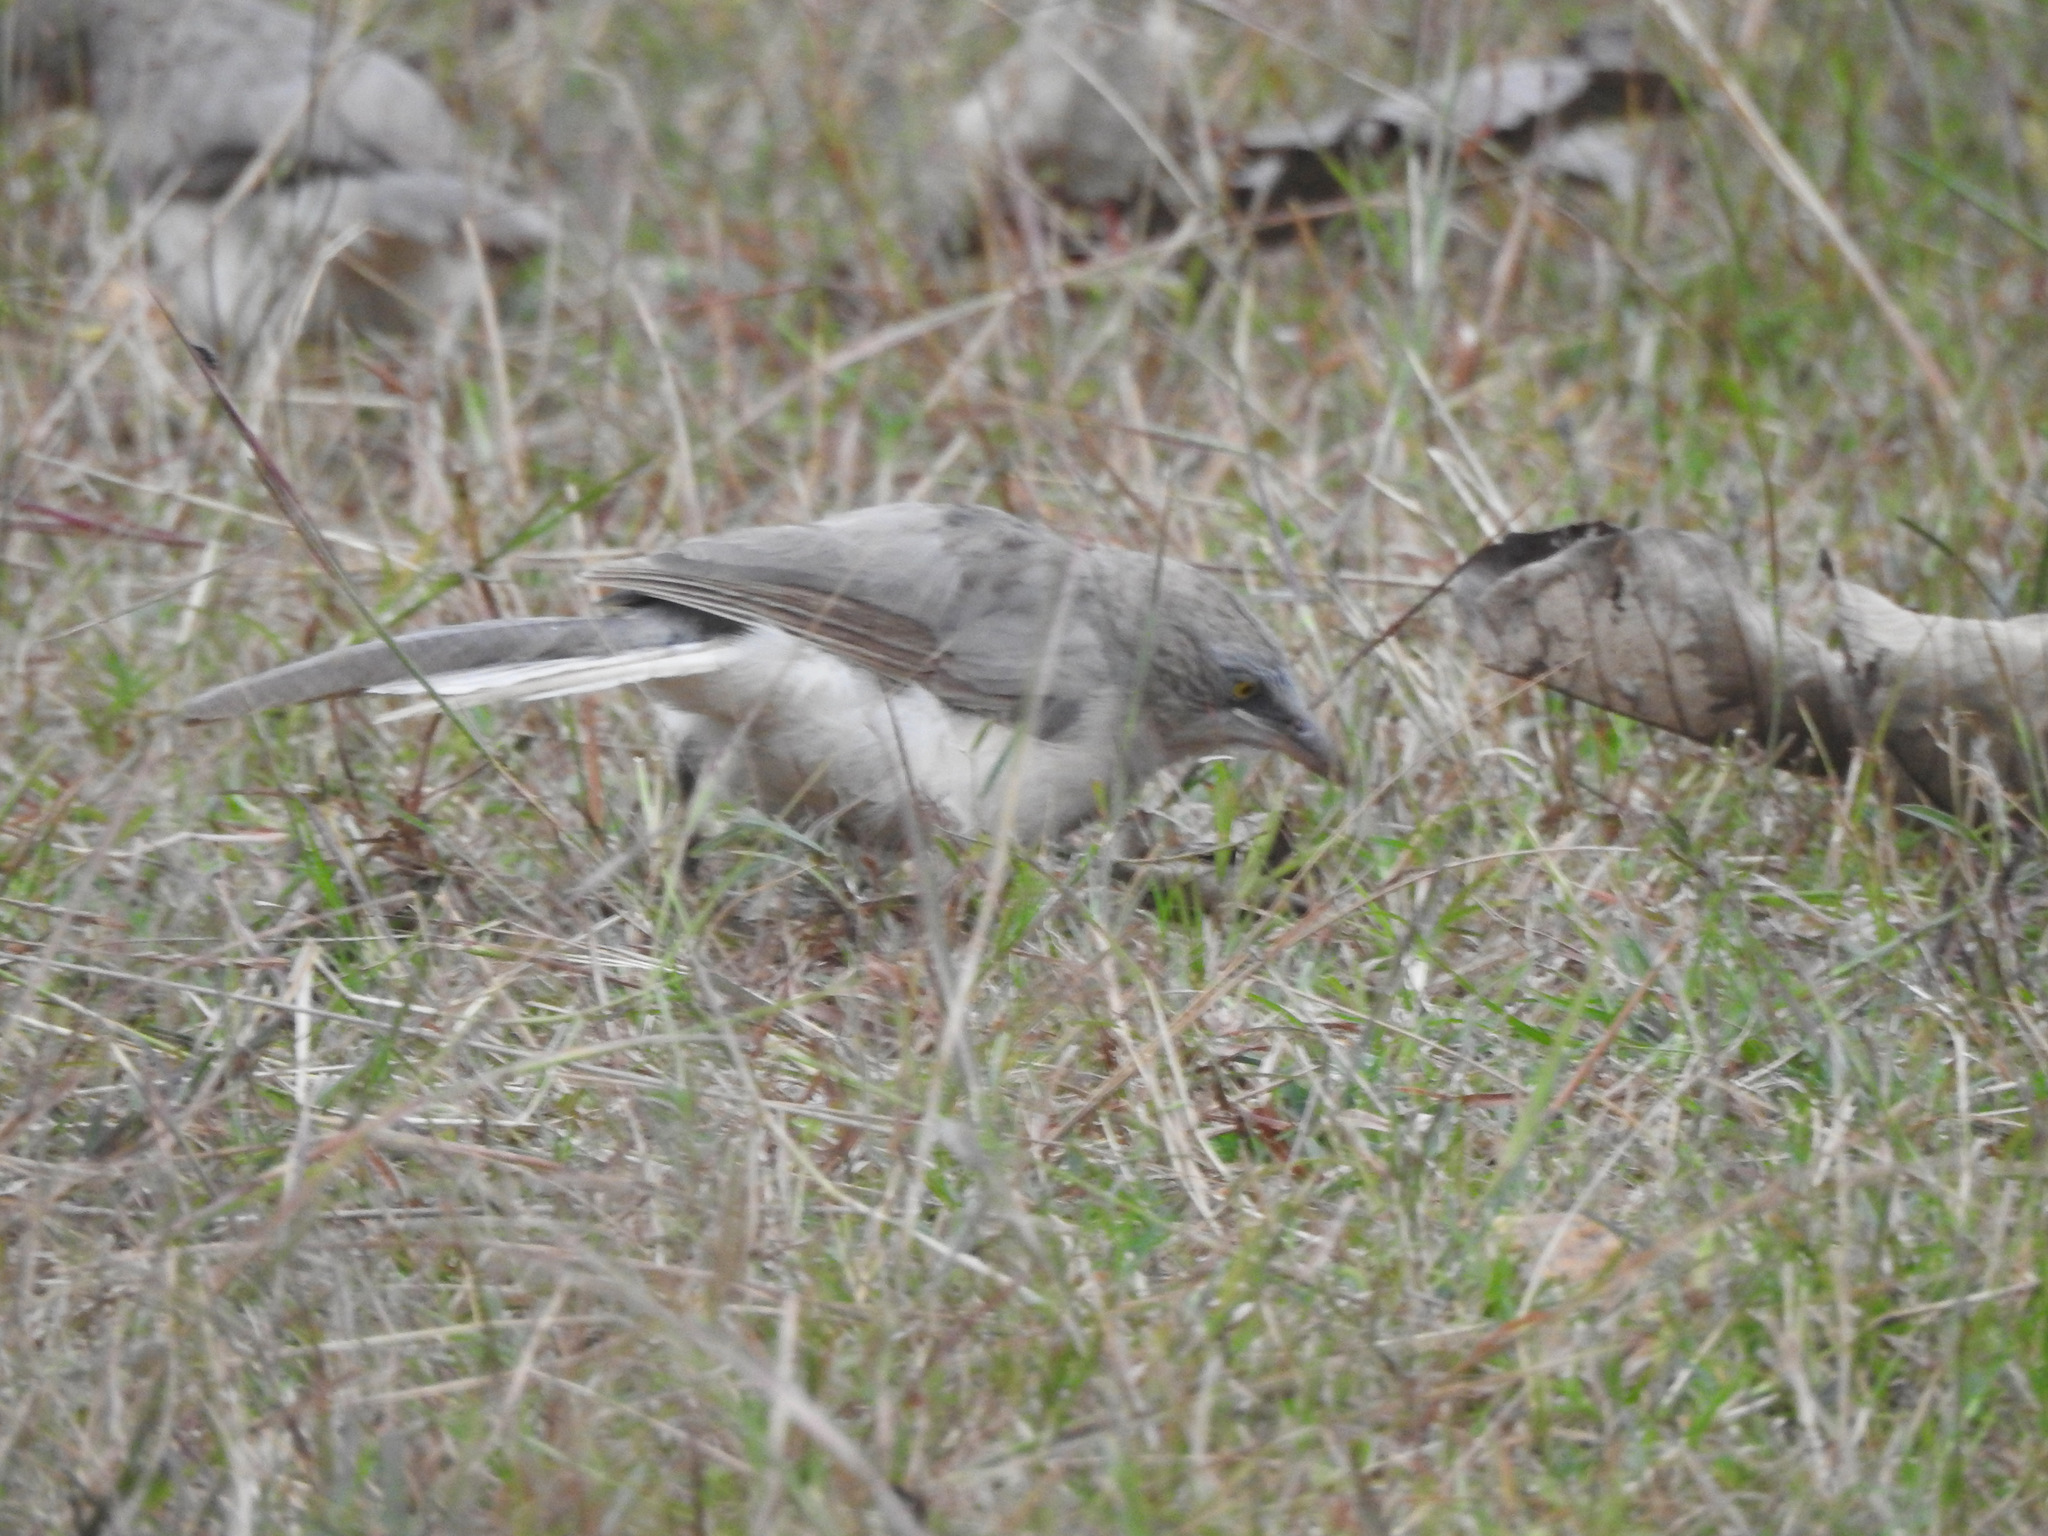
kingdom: Animalia
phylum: Chordata
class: Aves
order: Passeriformes
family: Leiothrichidae
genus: Turdoides
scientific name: Turdoides malcolmi
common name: Large grey babbler
